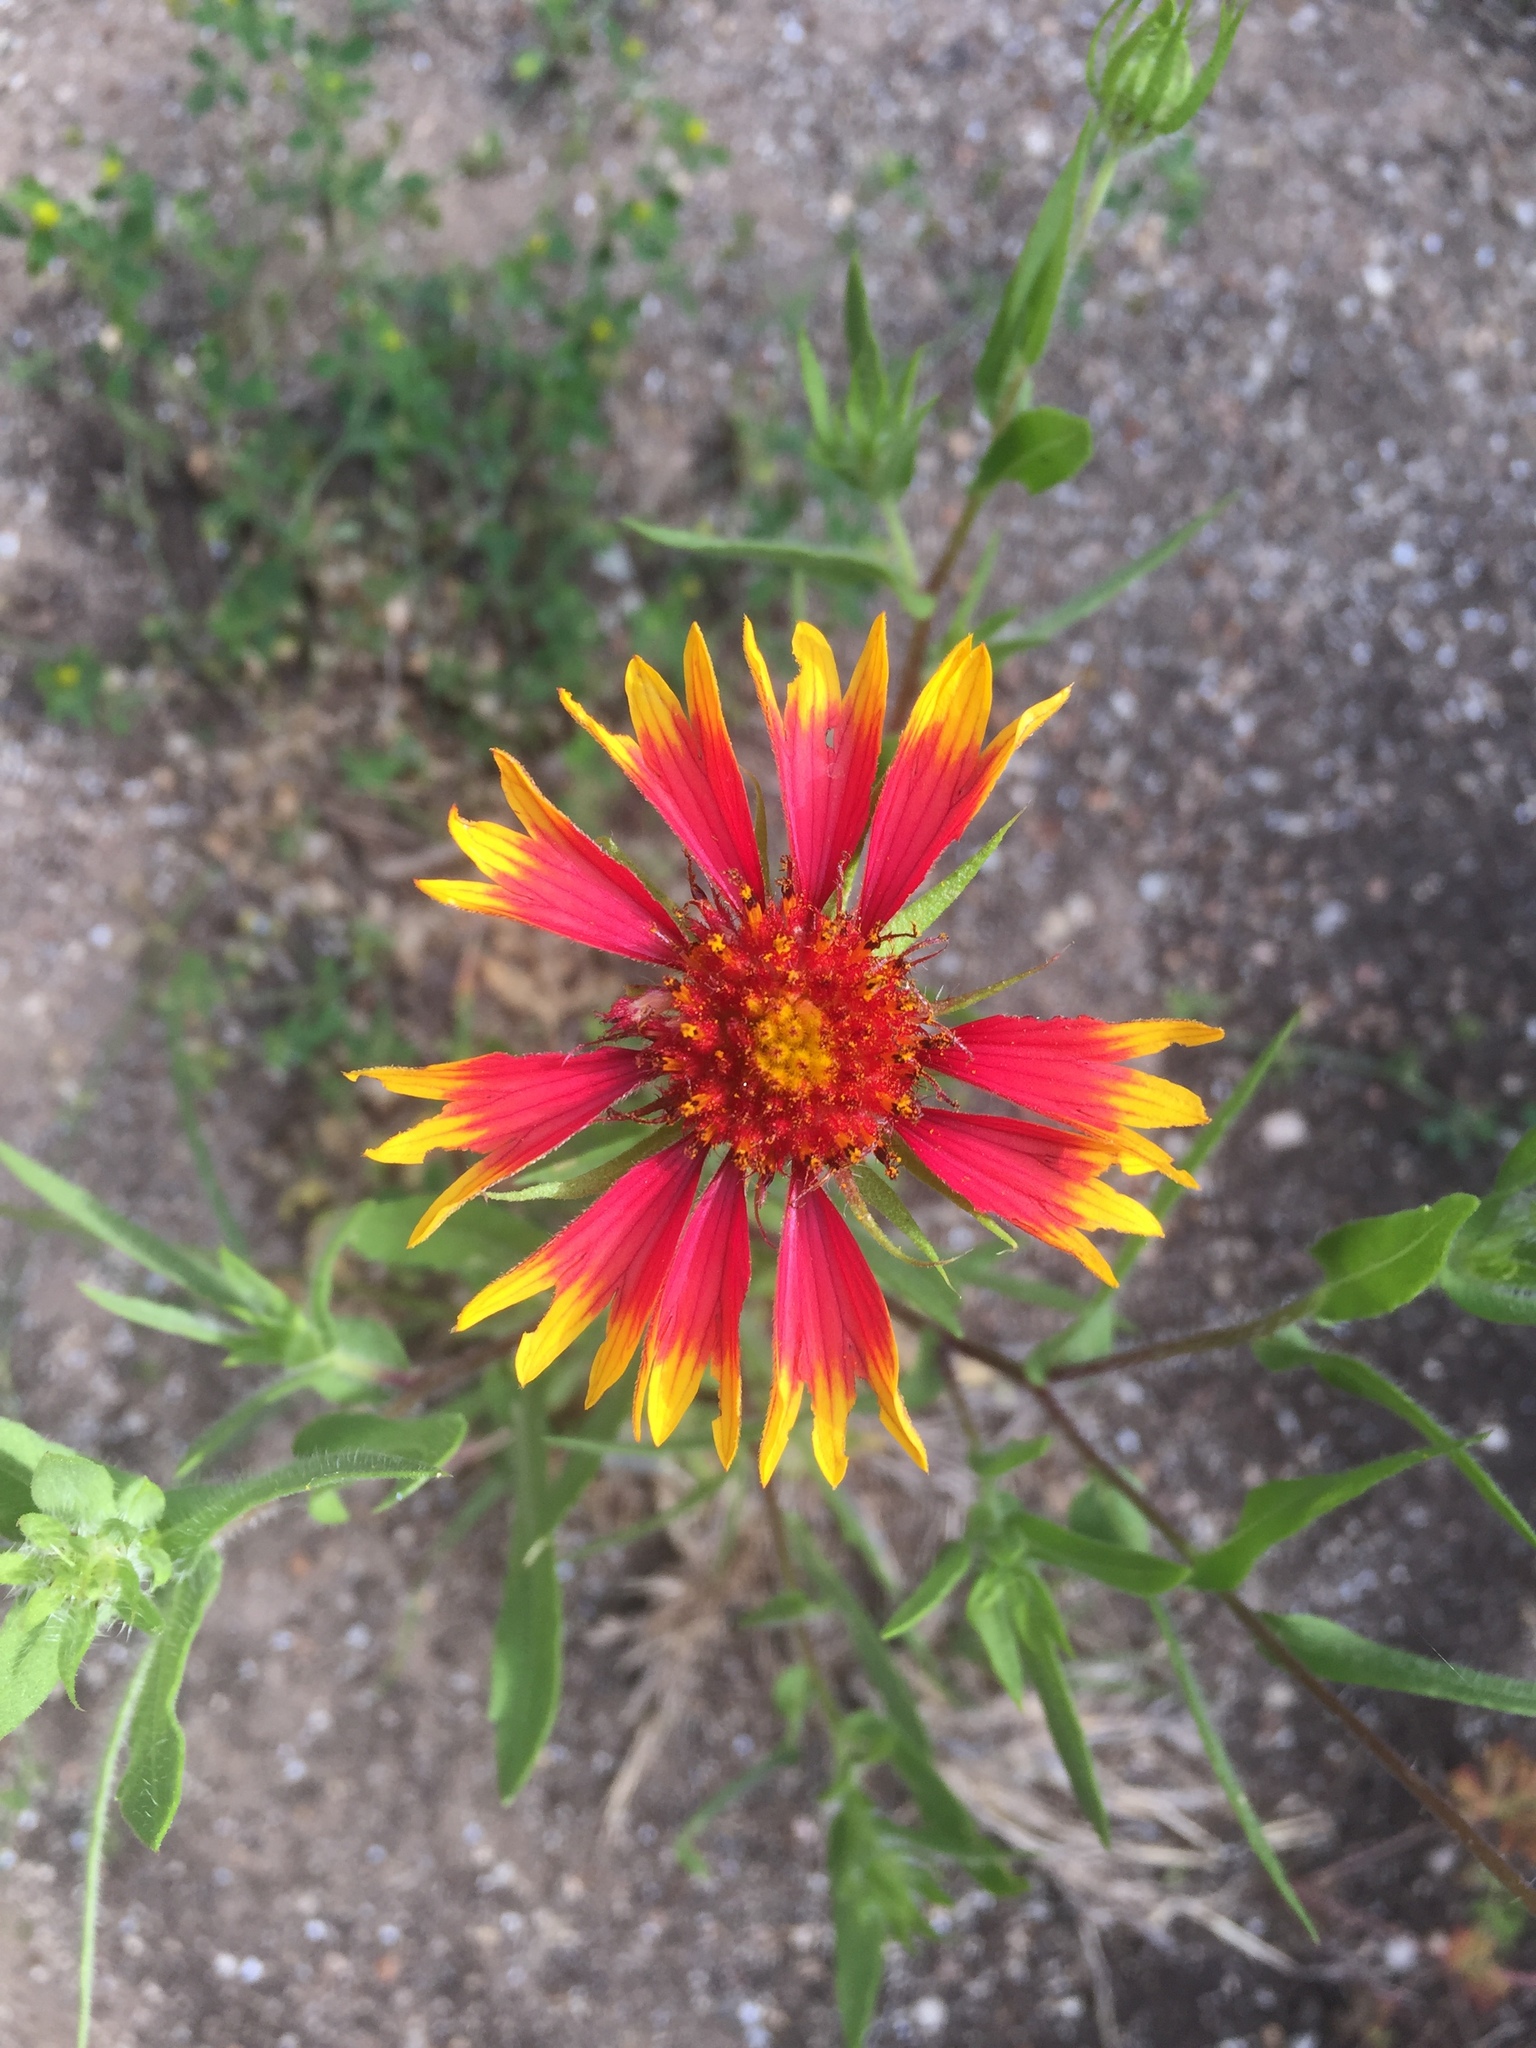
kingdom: Plantae
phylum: Tracheophyta
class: Magnoliopsida
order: Asterales
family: Asteraceae
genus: Gaillardia
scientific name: Gaillardia pulchella
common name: Firewheel
